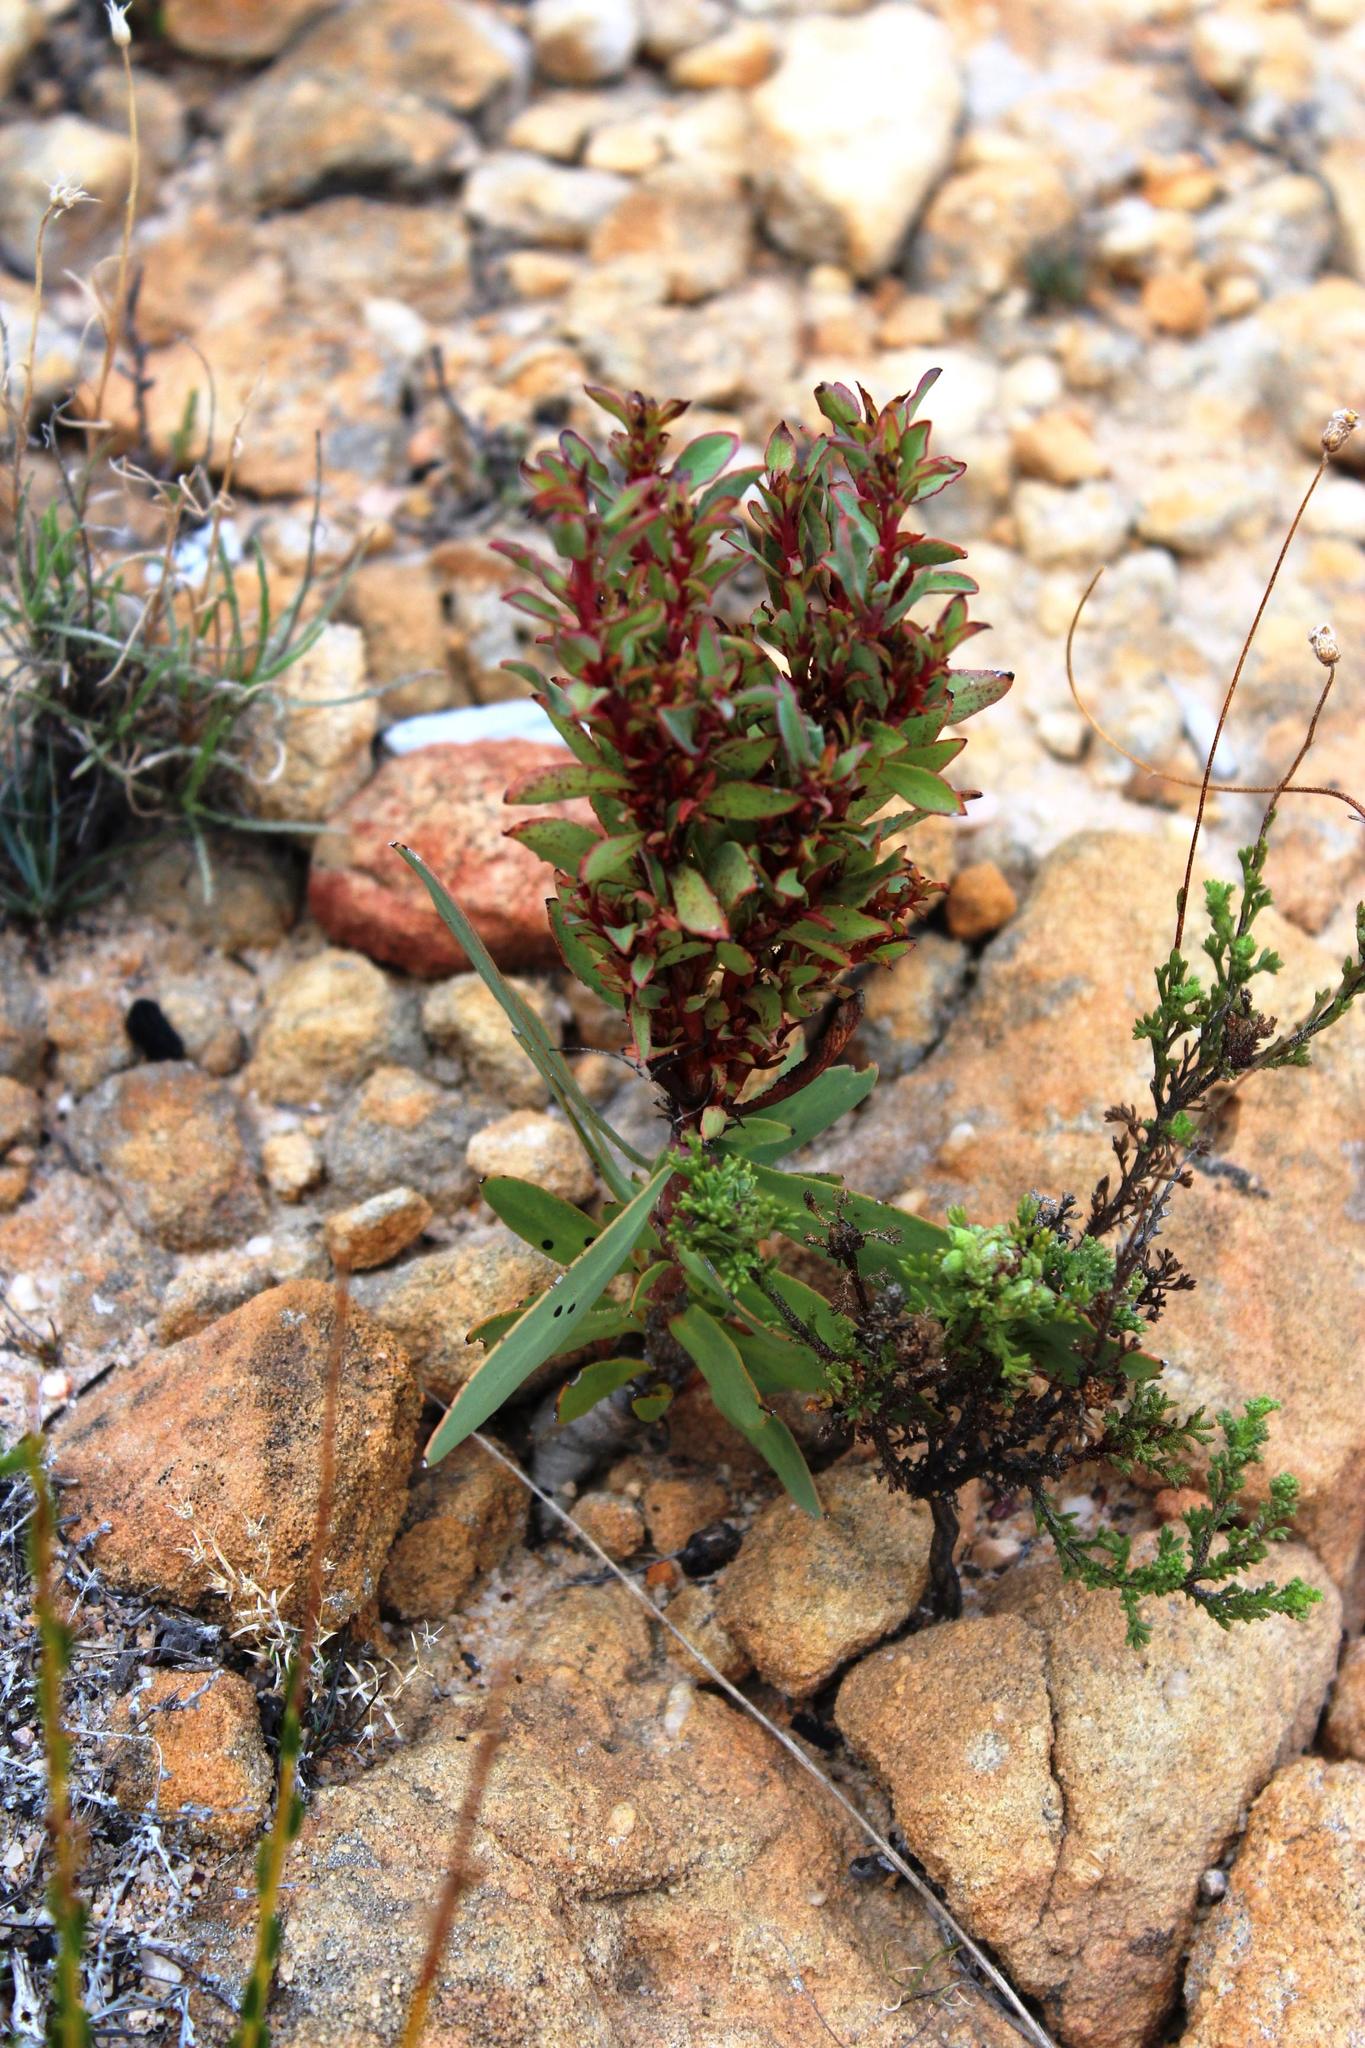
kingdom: Bacteria
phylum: Firmicutes
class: Bacilli
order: Acholeplasmatales
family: Acholeplasmataceae
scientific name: Acholeplasmataceae
